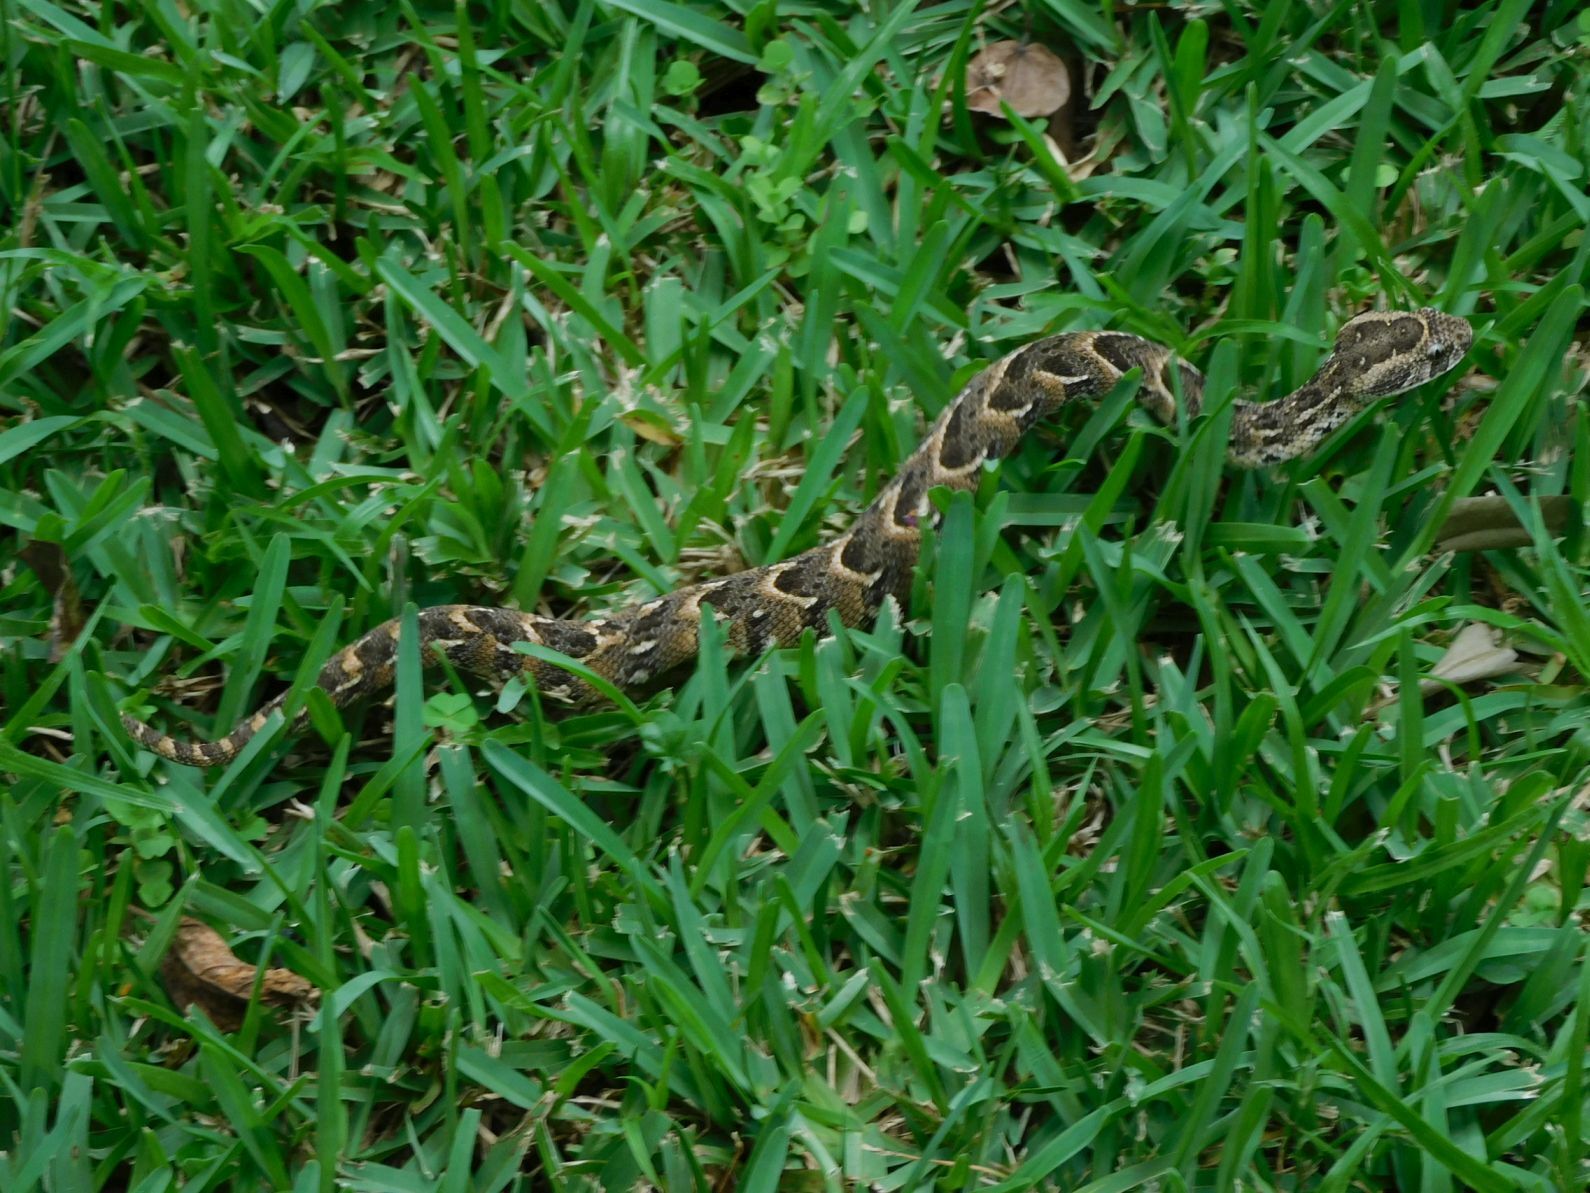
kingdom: Animalia
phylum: Chordata
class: Squamata
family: Viperidae
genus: Bitis
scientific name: Bitis arietans
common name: Puff adder
